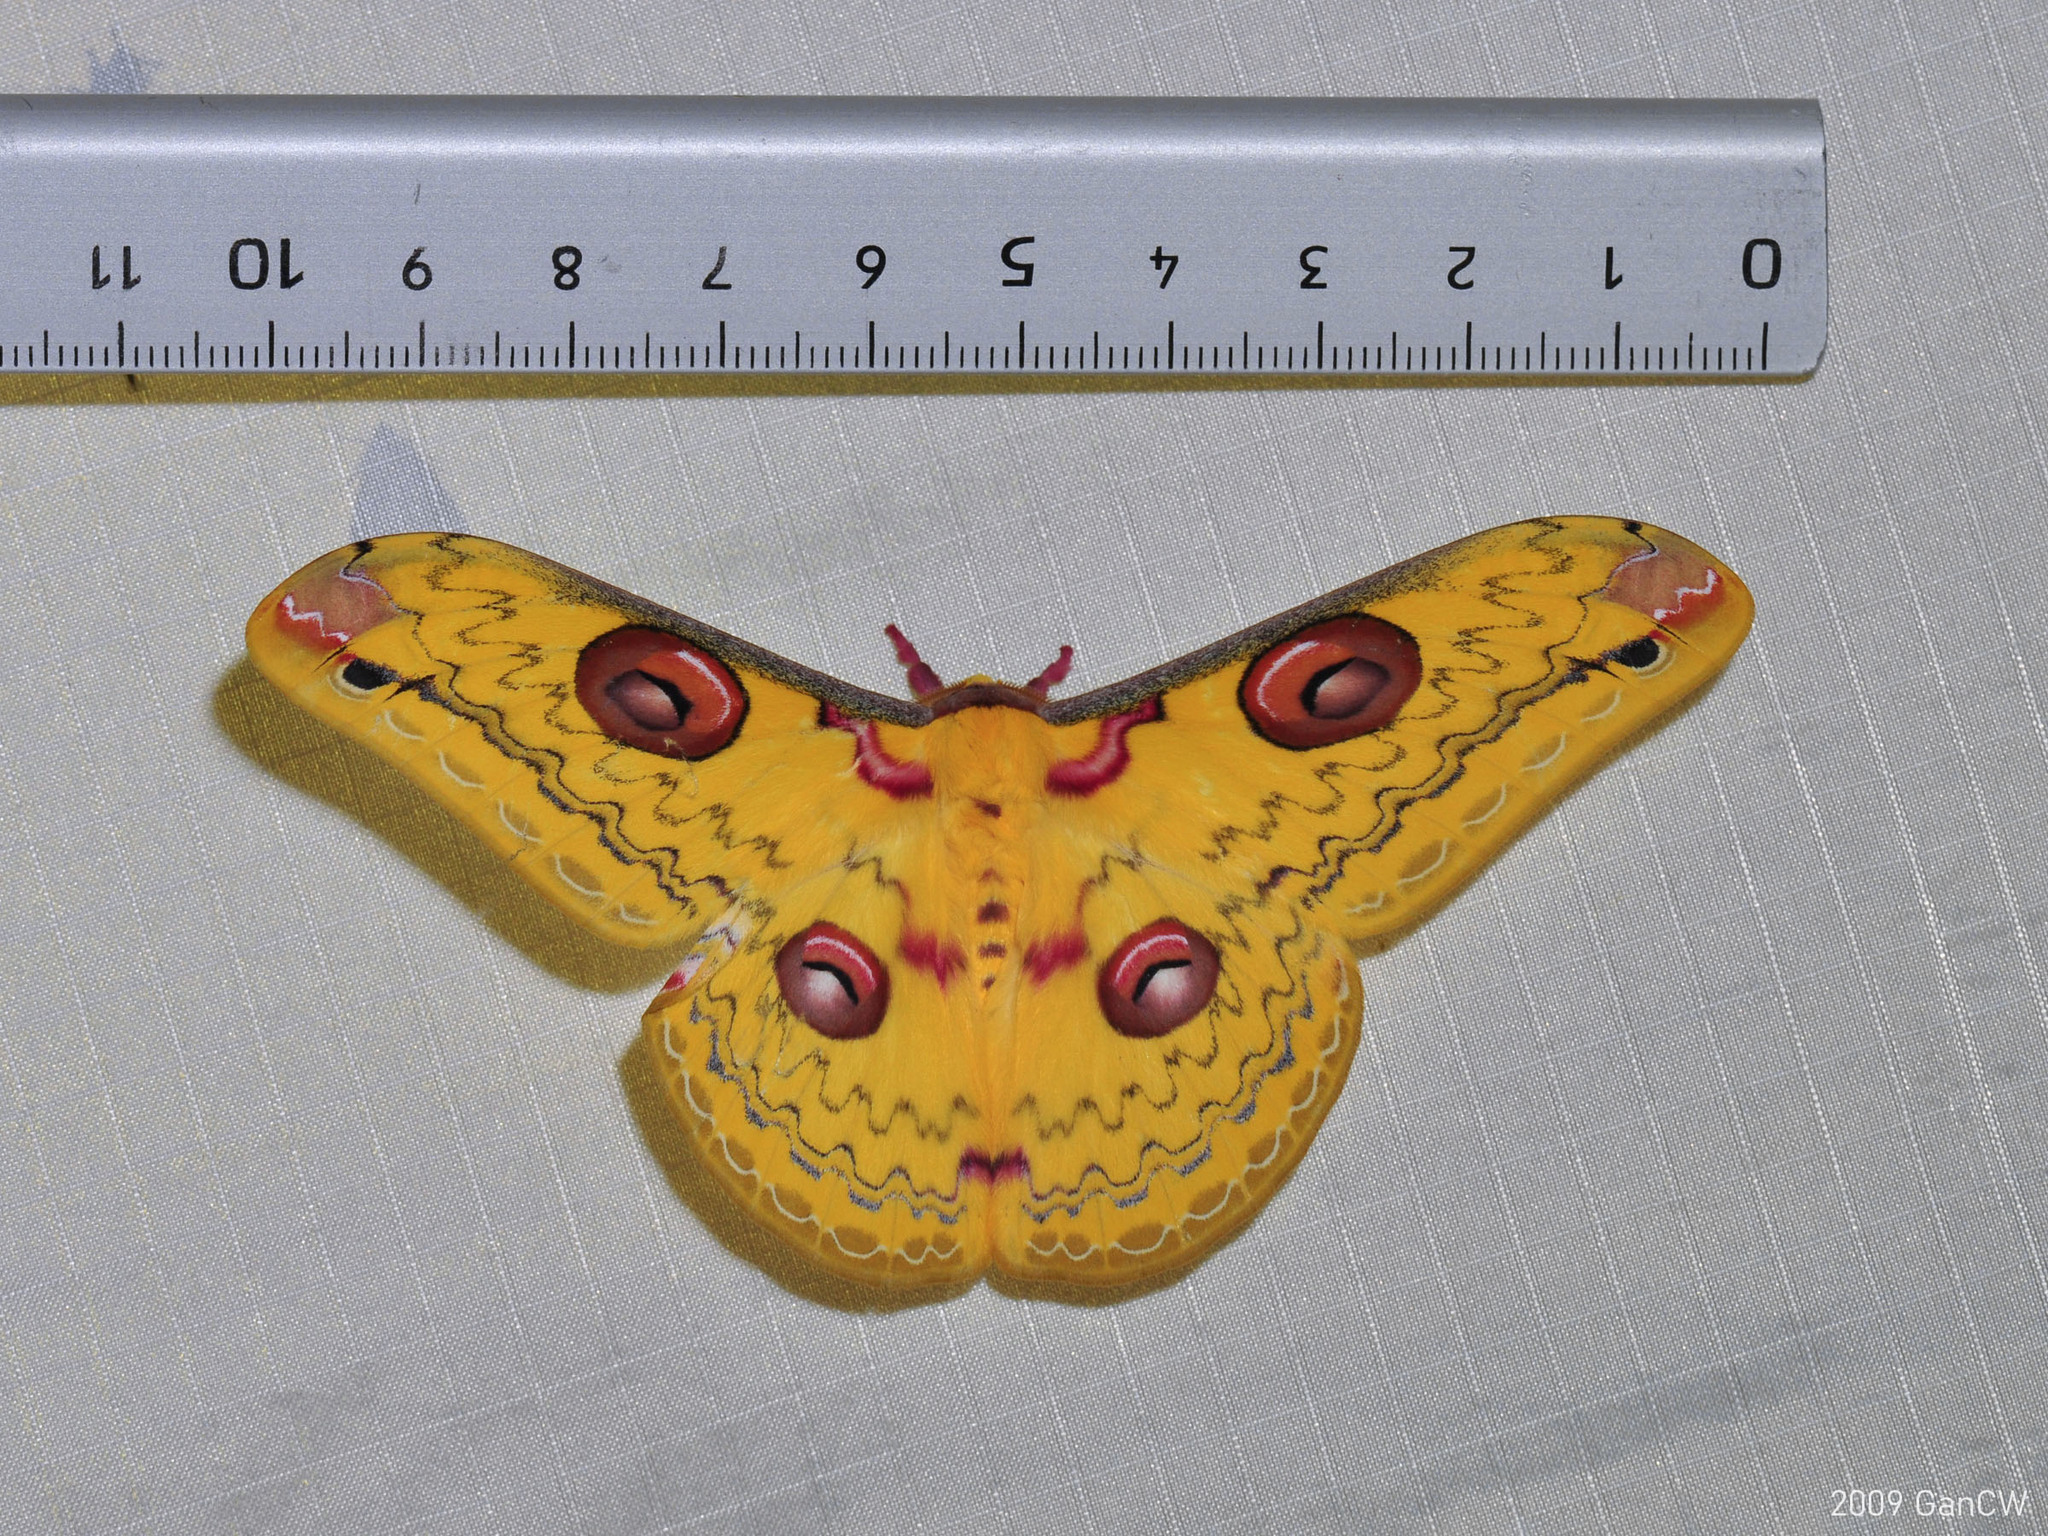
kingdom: Animalia
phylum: Arthropoda
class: Insecta
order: Lepidoptera
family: Saturniidae
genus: Loepa
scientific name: Loepa siamensis
